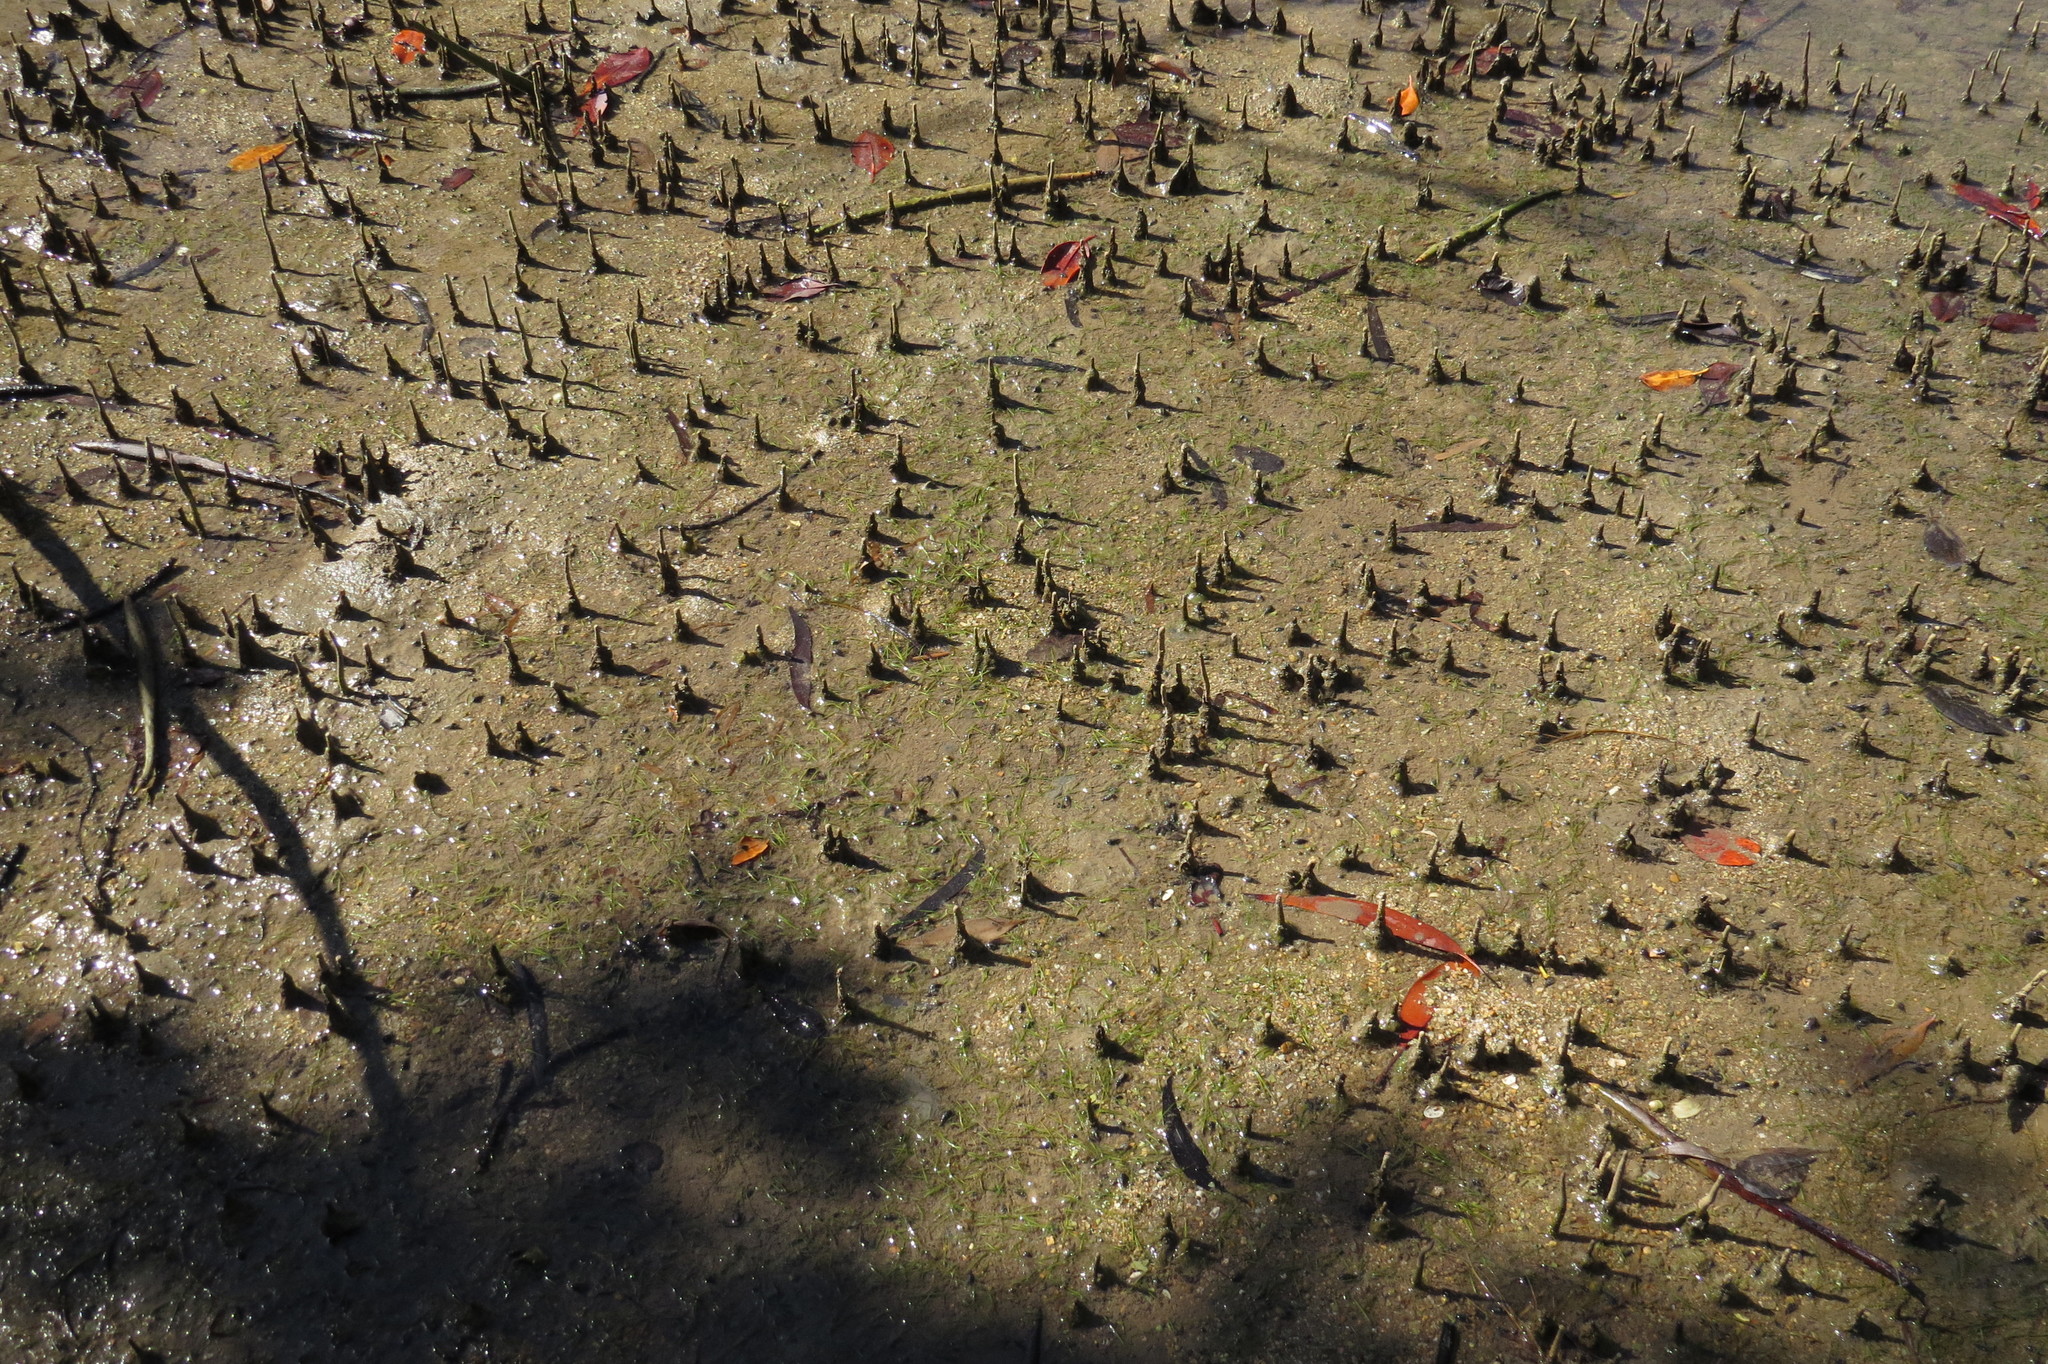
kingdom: Plantae
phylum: Tracheophyta
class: Liliopsida
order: Alismatales
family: Cymodoceaceae
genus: Halodule
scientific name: Halodule pinifolia
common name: Species code: hp
